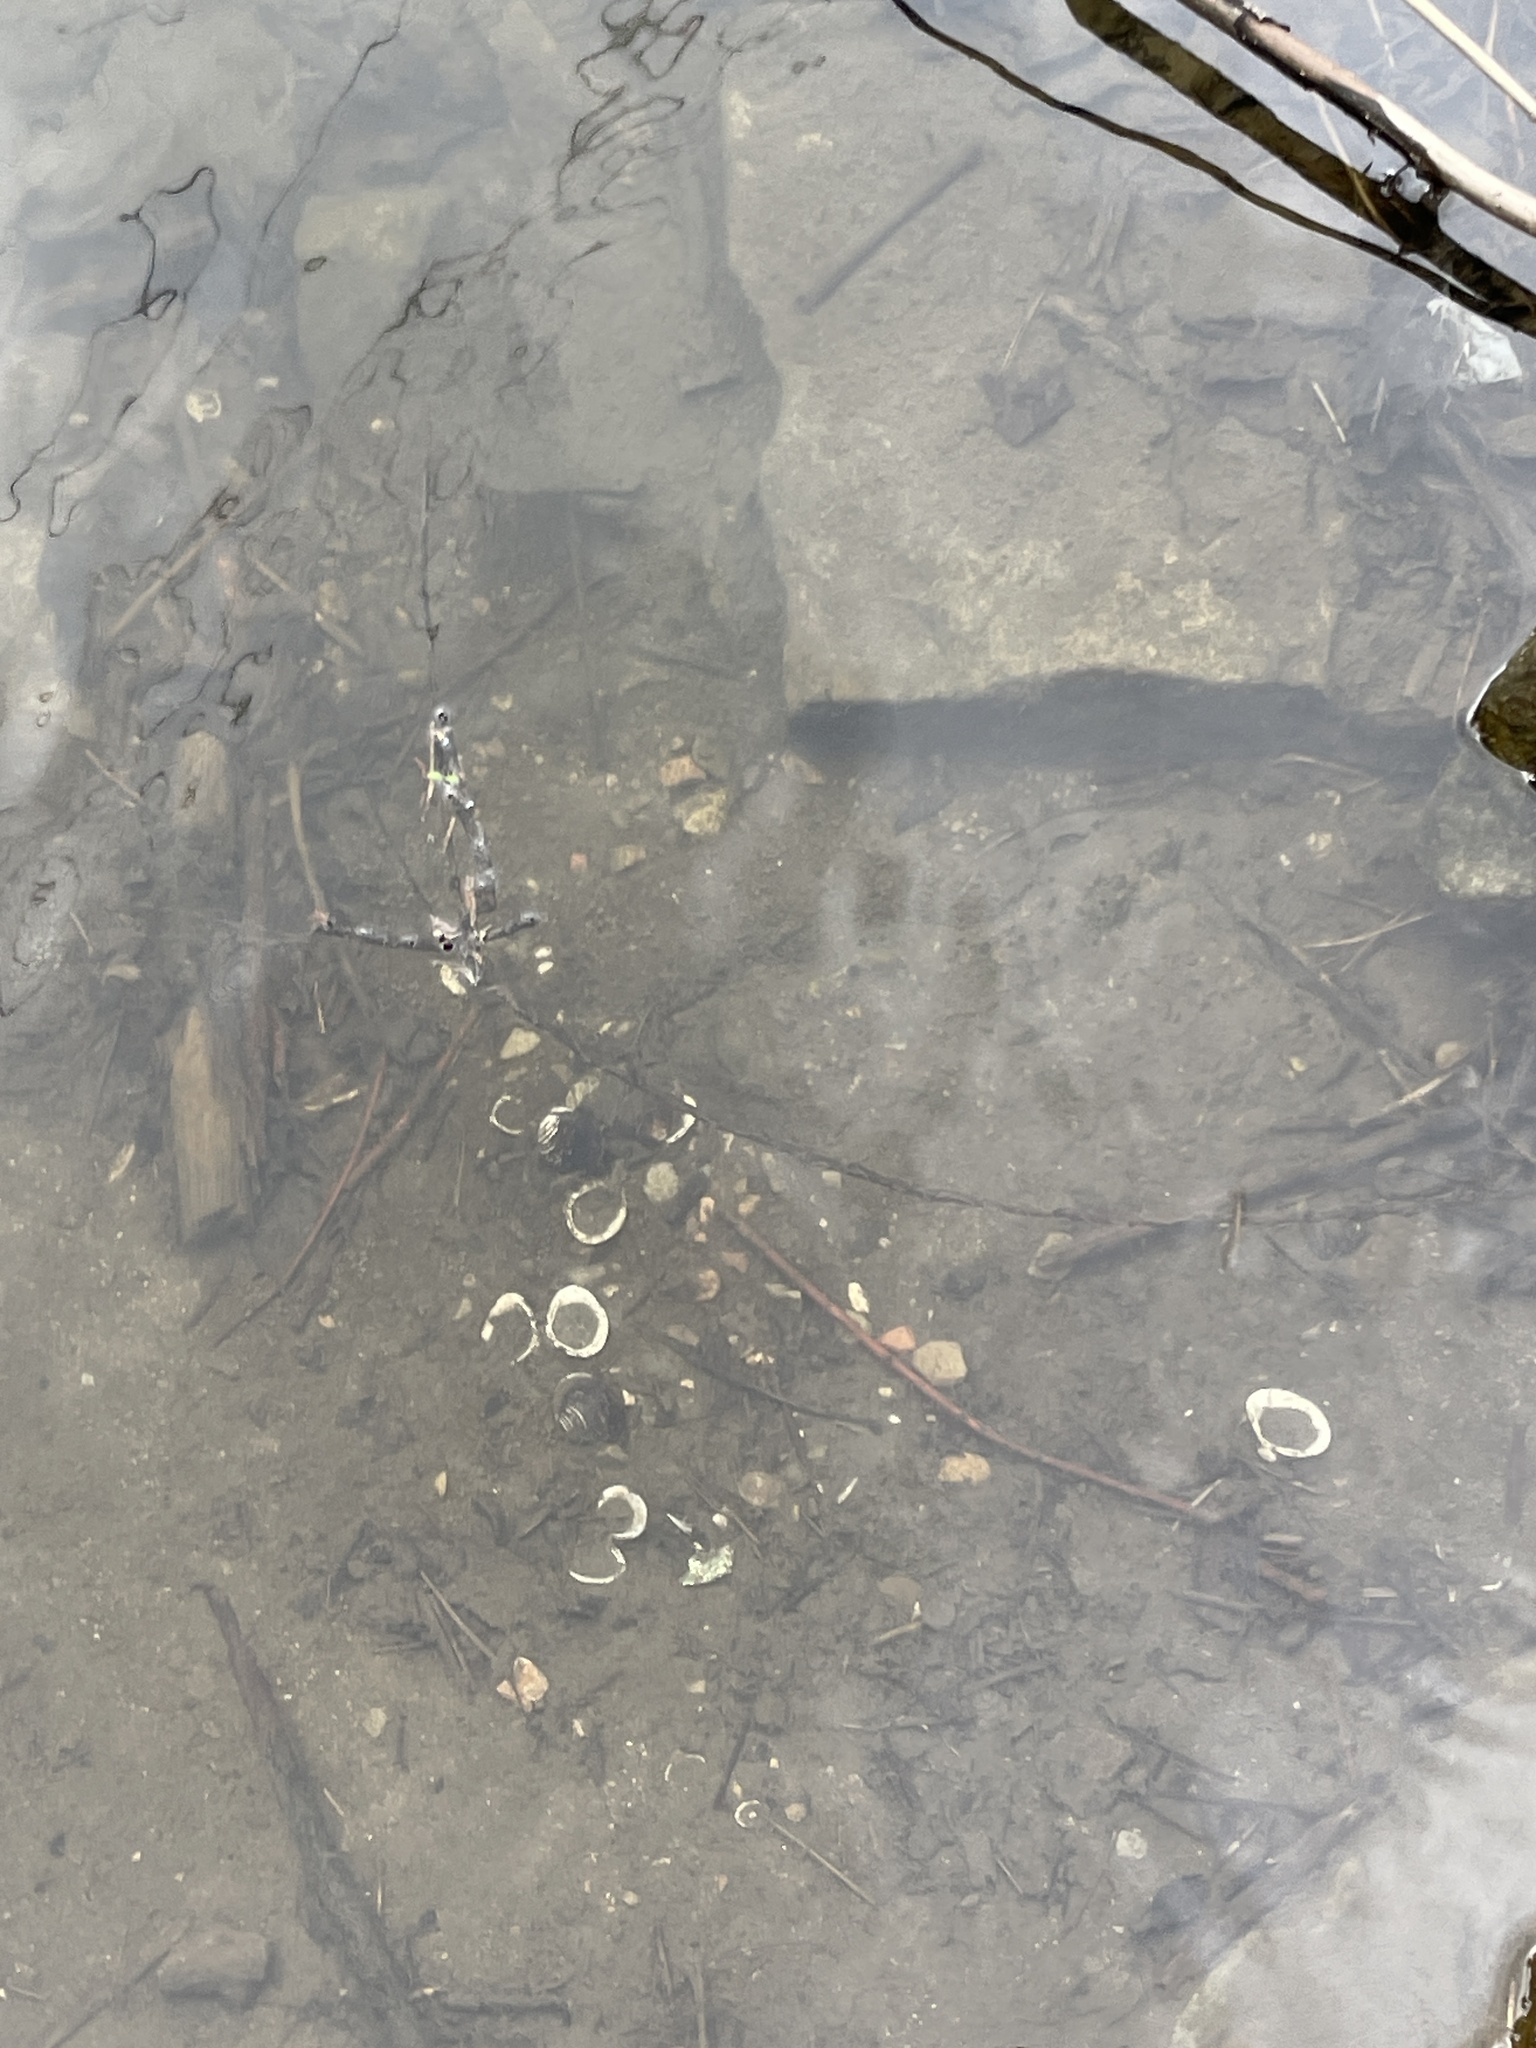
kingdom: Animalia
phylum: Mollusca
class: Bivalvia
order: Venerida
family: Cyrenidae
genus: Corbicula
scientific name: Corbicula fluminea
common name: Asian clam
